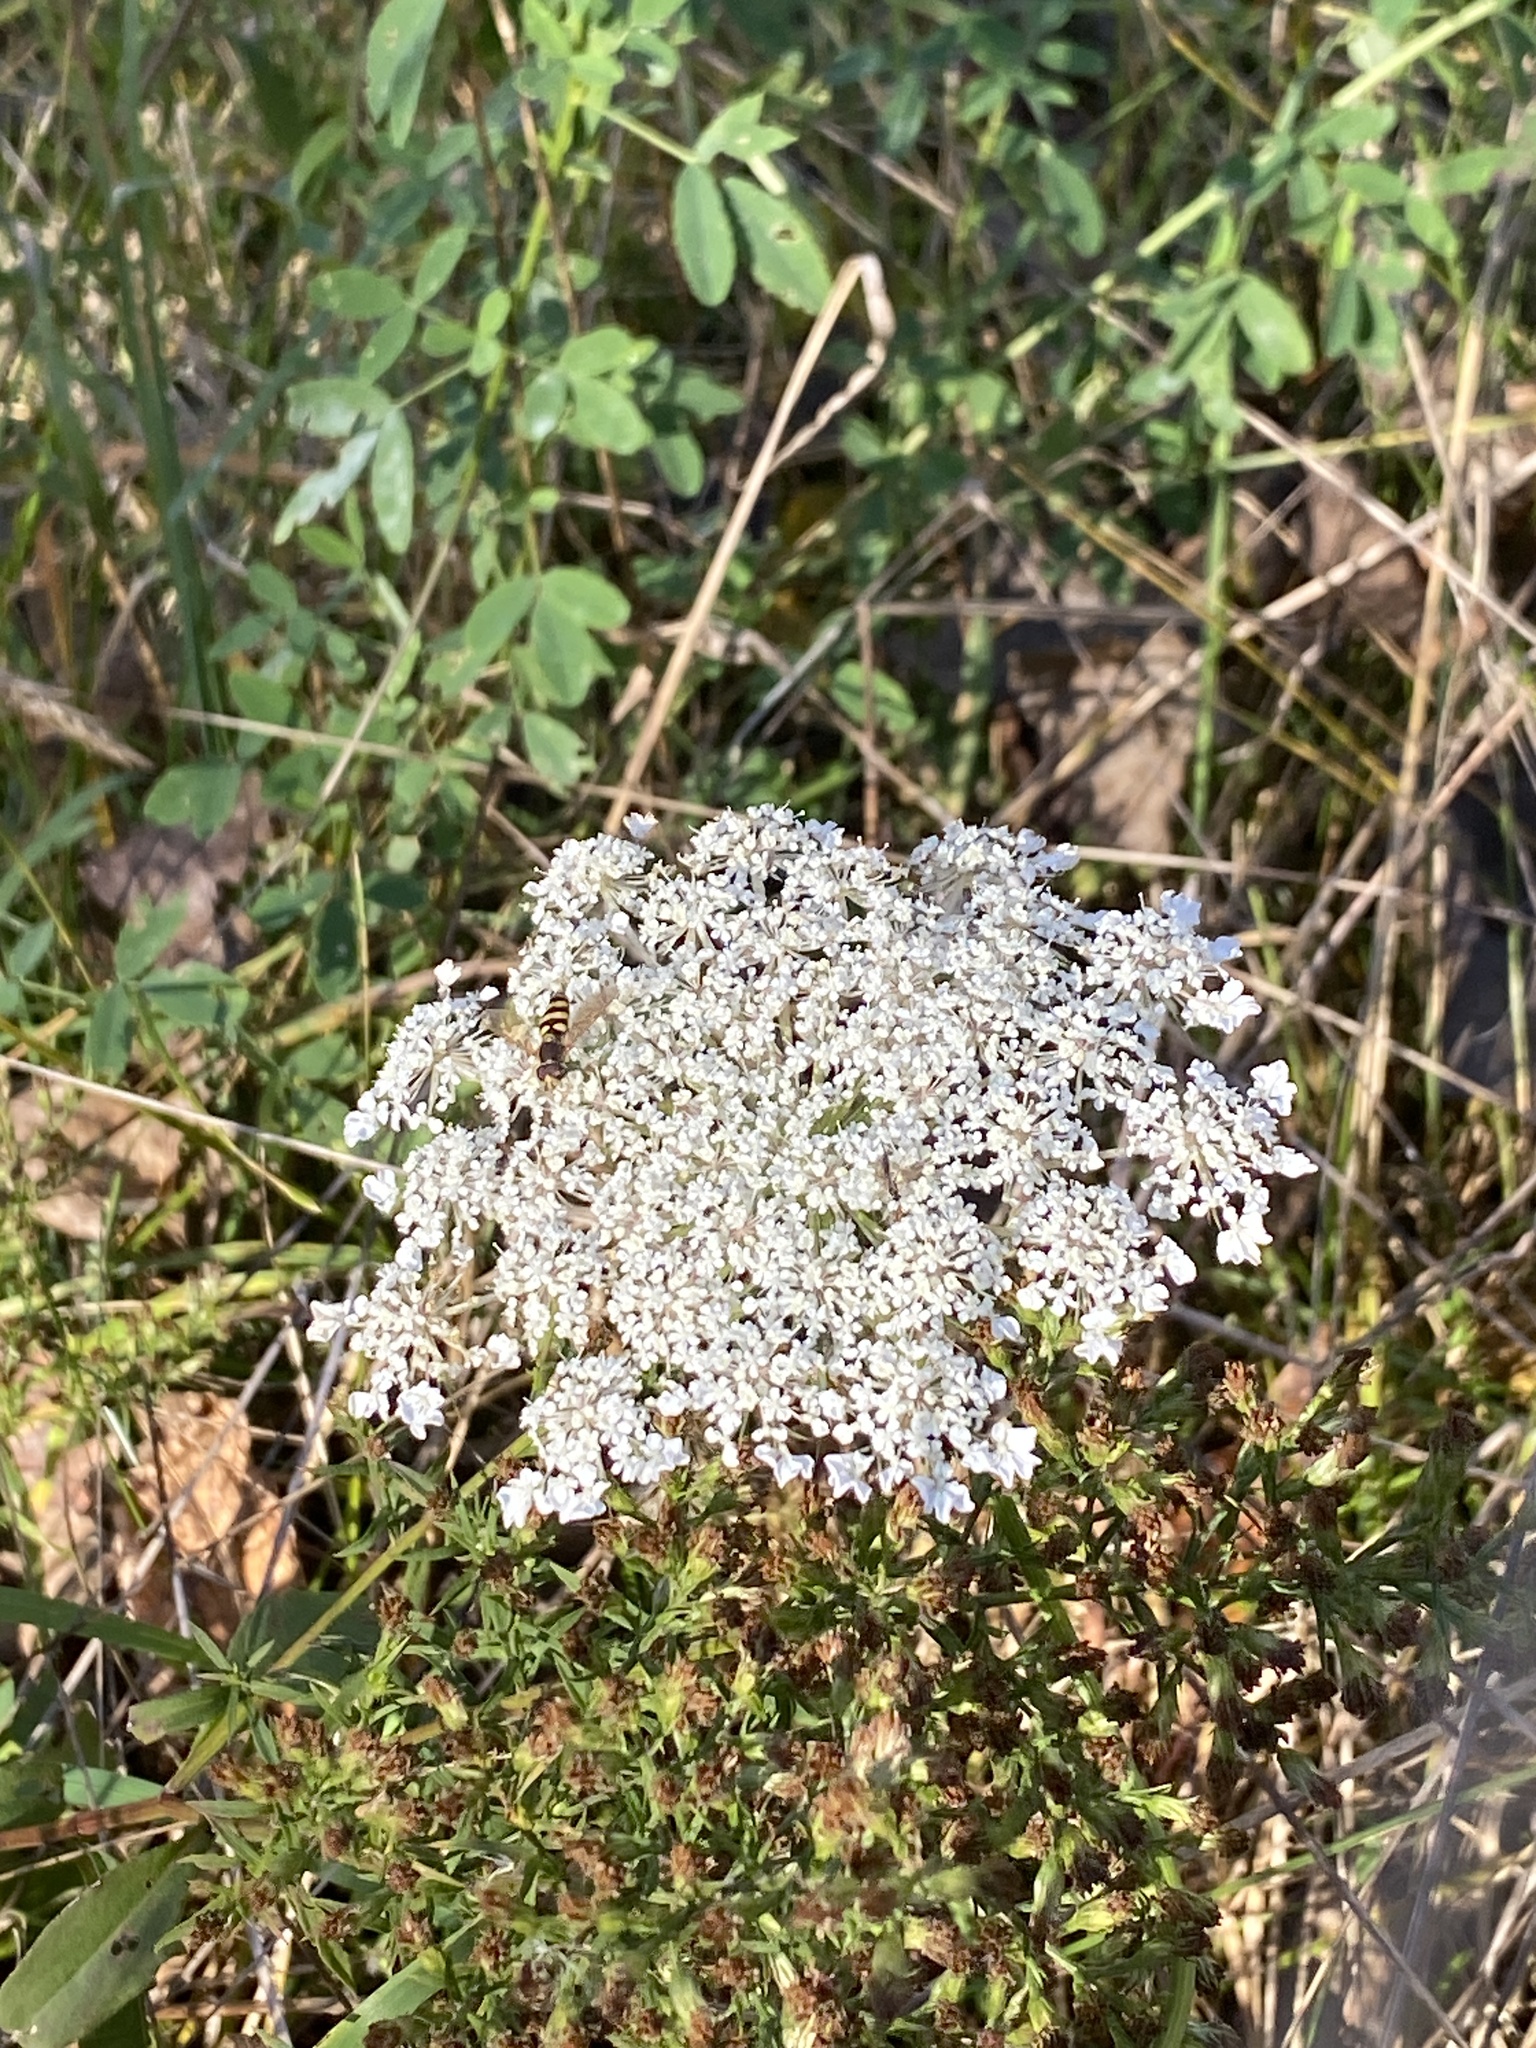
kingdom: Plantae
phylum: Tracheophyta
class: Magnoliopsida
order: Apiales
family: Apiaceae
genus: Daucus
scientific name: Daucus carota
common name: Wild carrot
